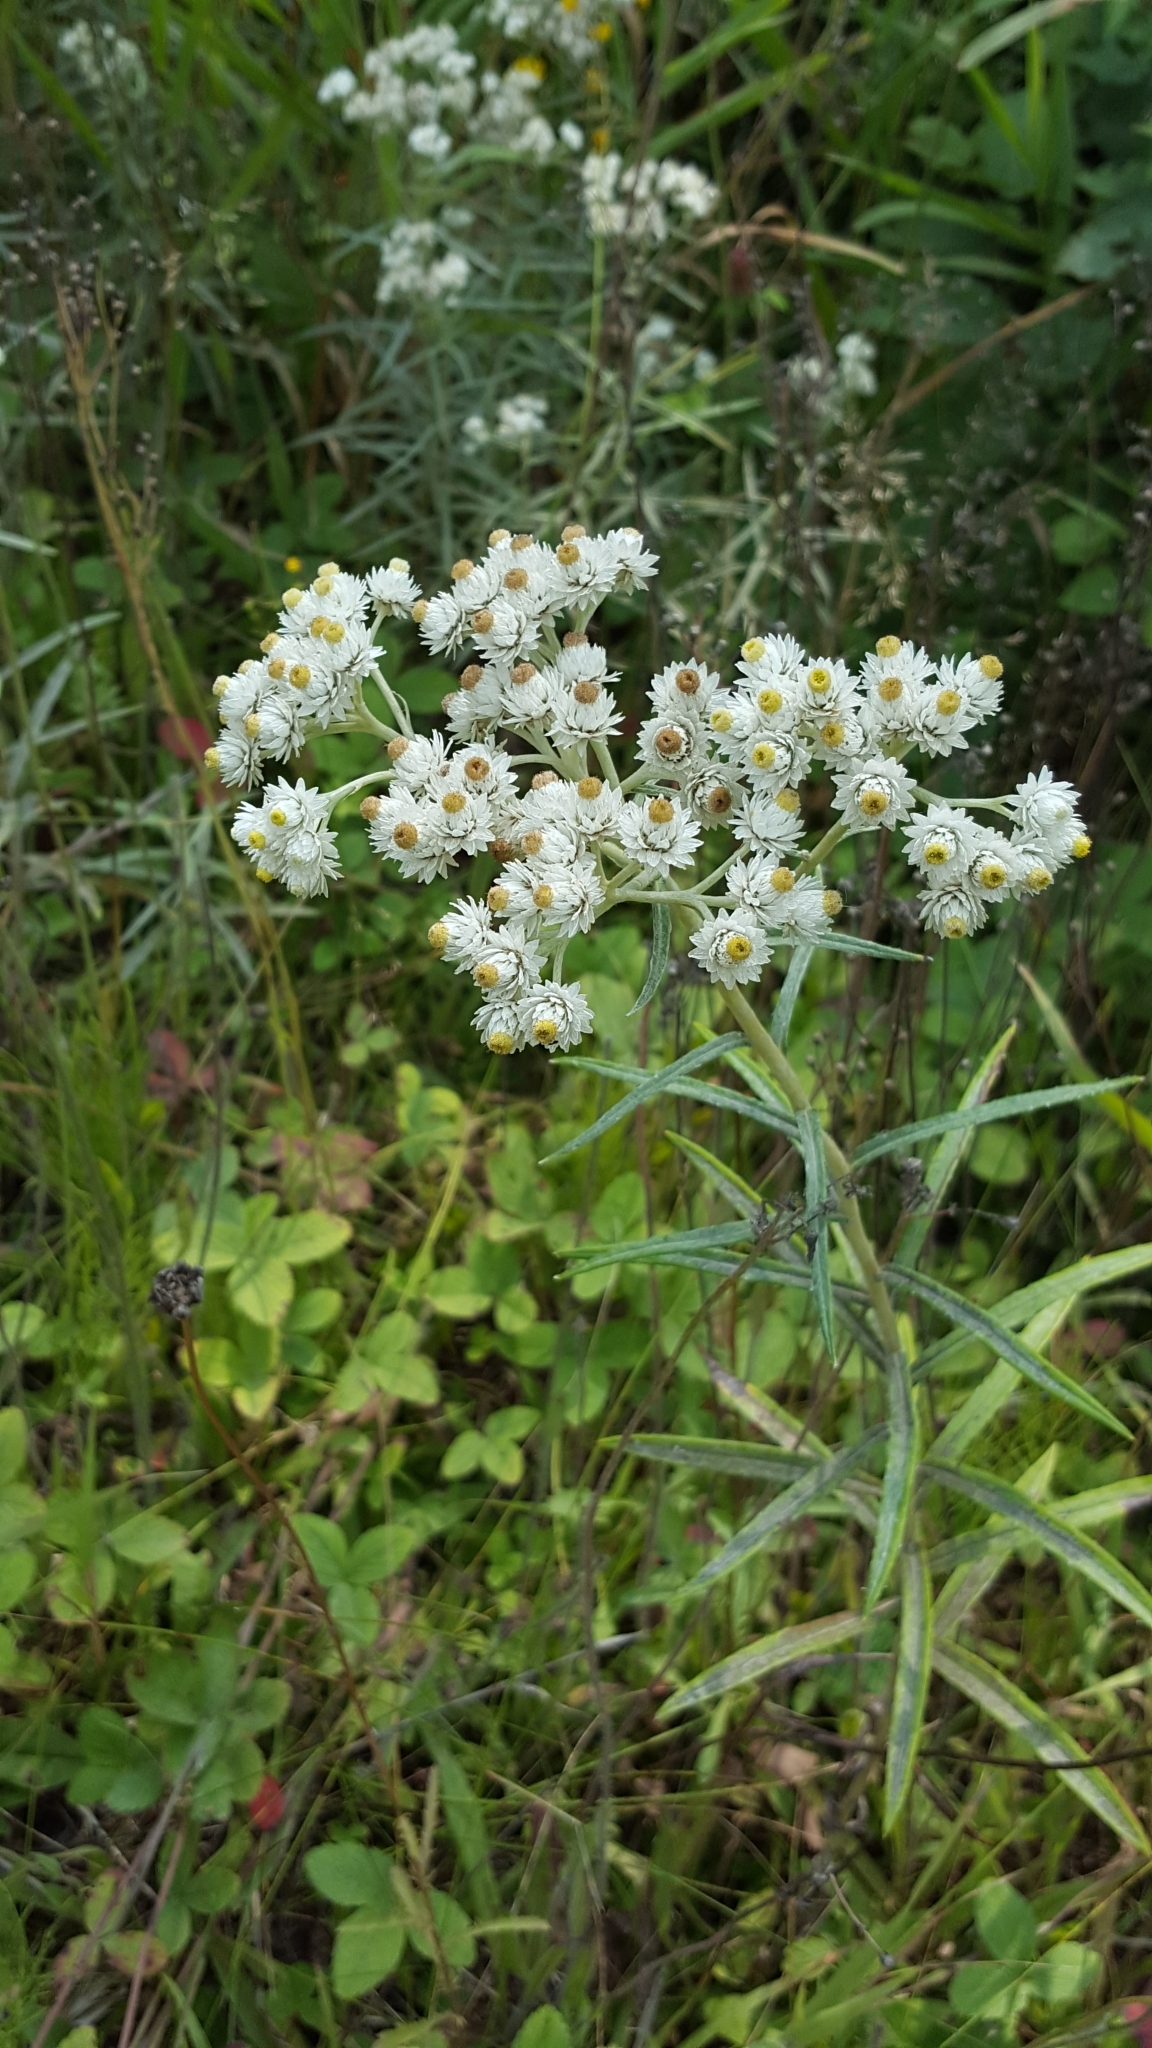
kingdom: Plantae
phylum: Tracheophyta
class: Magnoliopsida
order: Asterales
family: Asteraceae
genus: Anaphalis
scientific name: Anaphalis margaritacea
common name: Pearly everlasting
